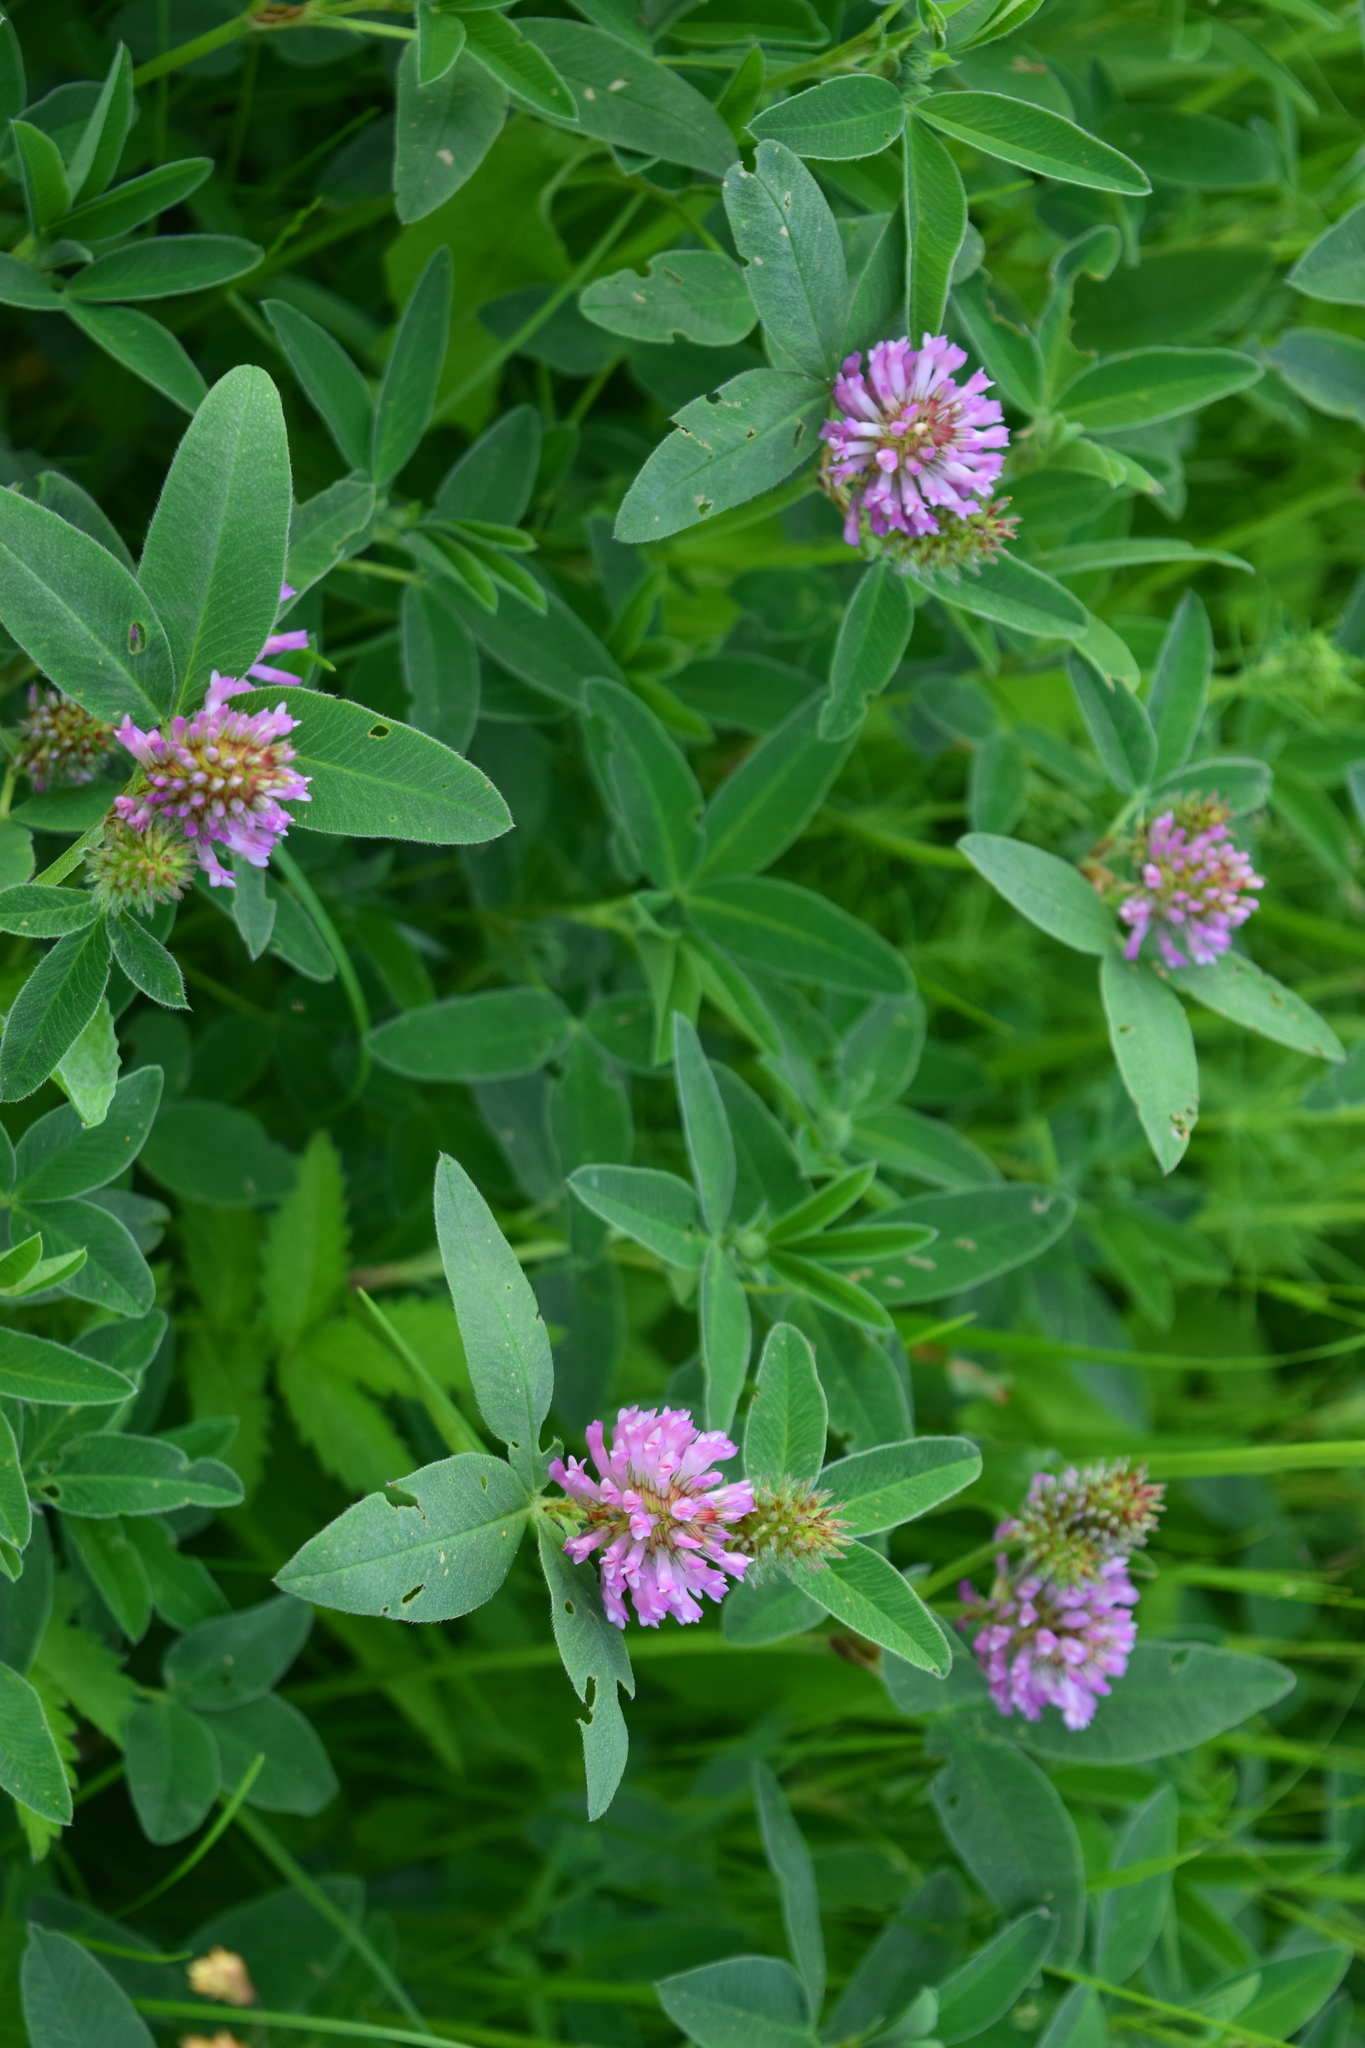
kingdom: Plantae
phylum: Tracheophyta
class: Magnoliopsida
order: Fabales
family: Fabaceae
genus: Trifolium
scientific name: Trifolium medium
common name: Zigzag clover
